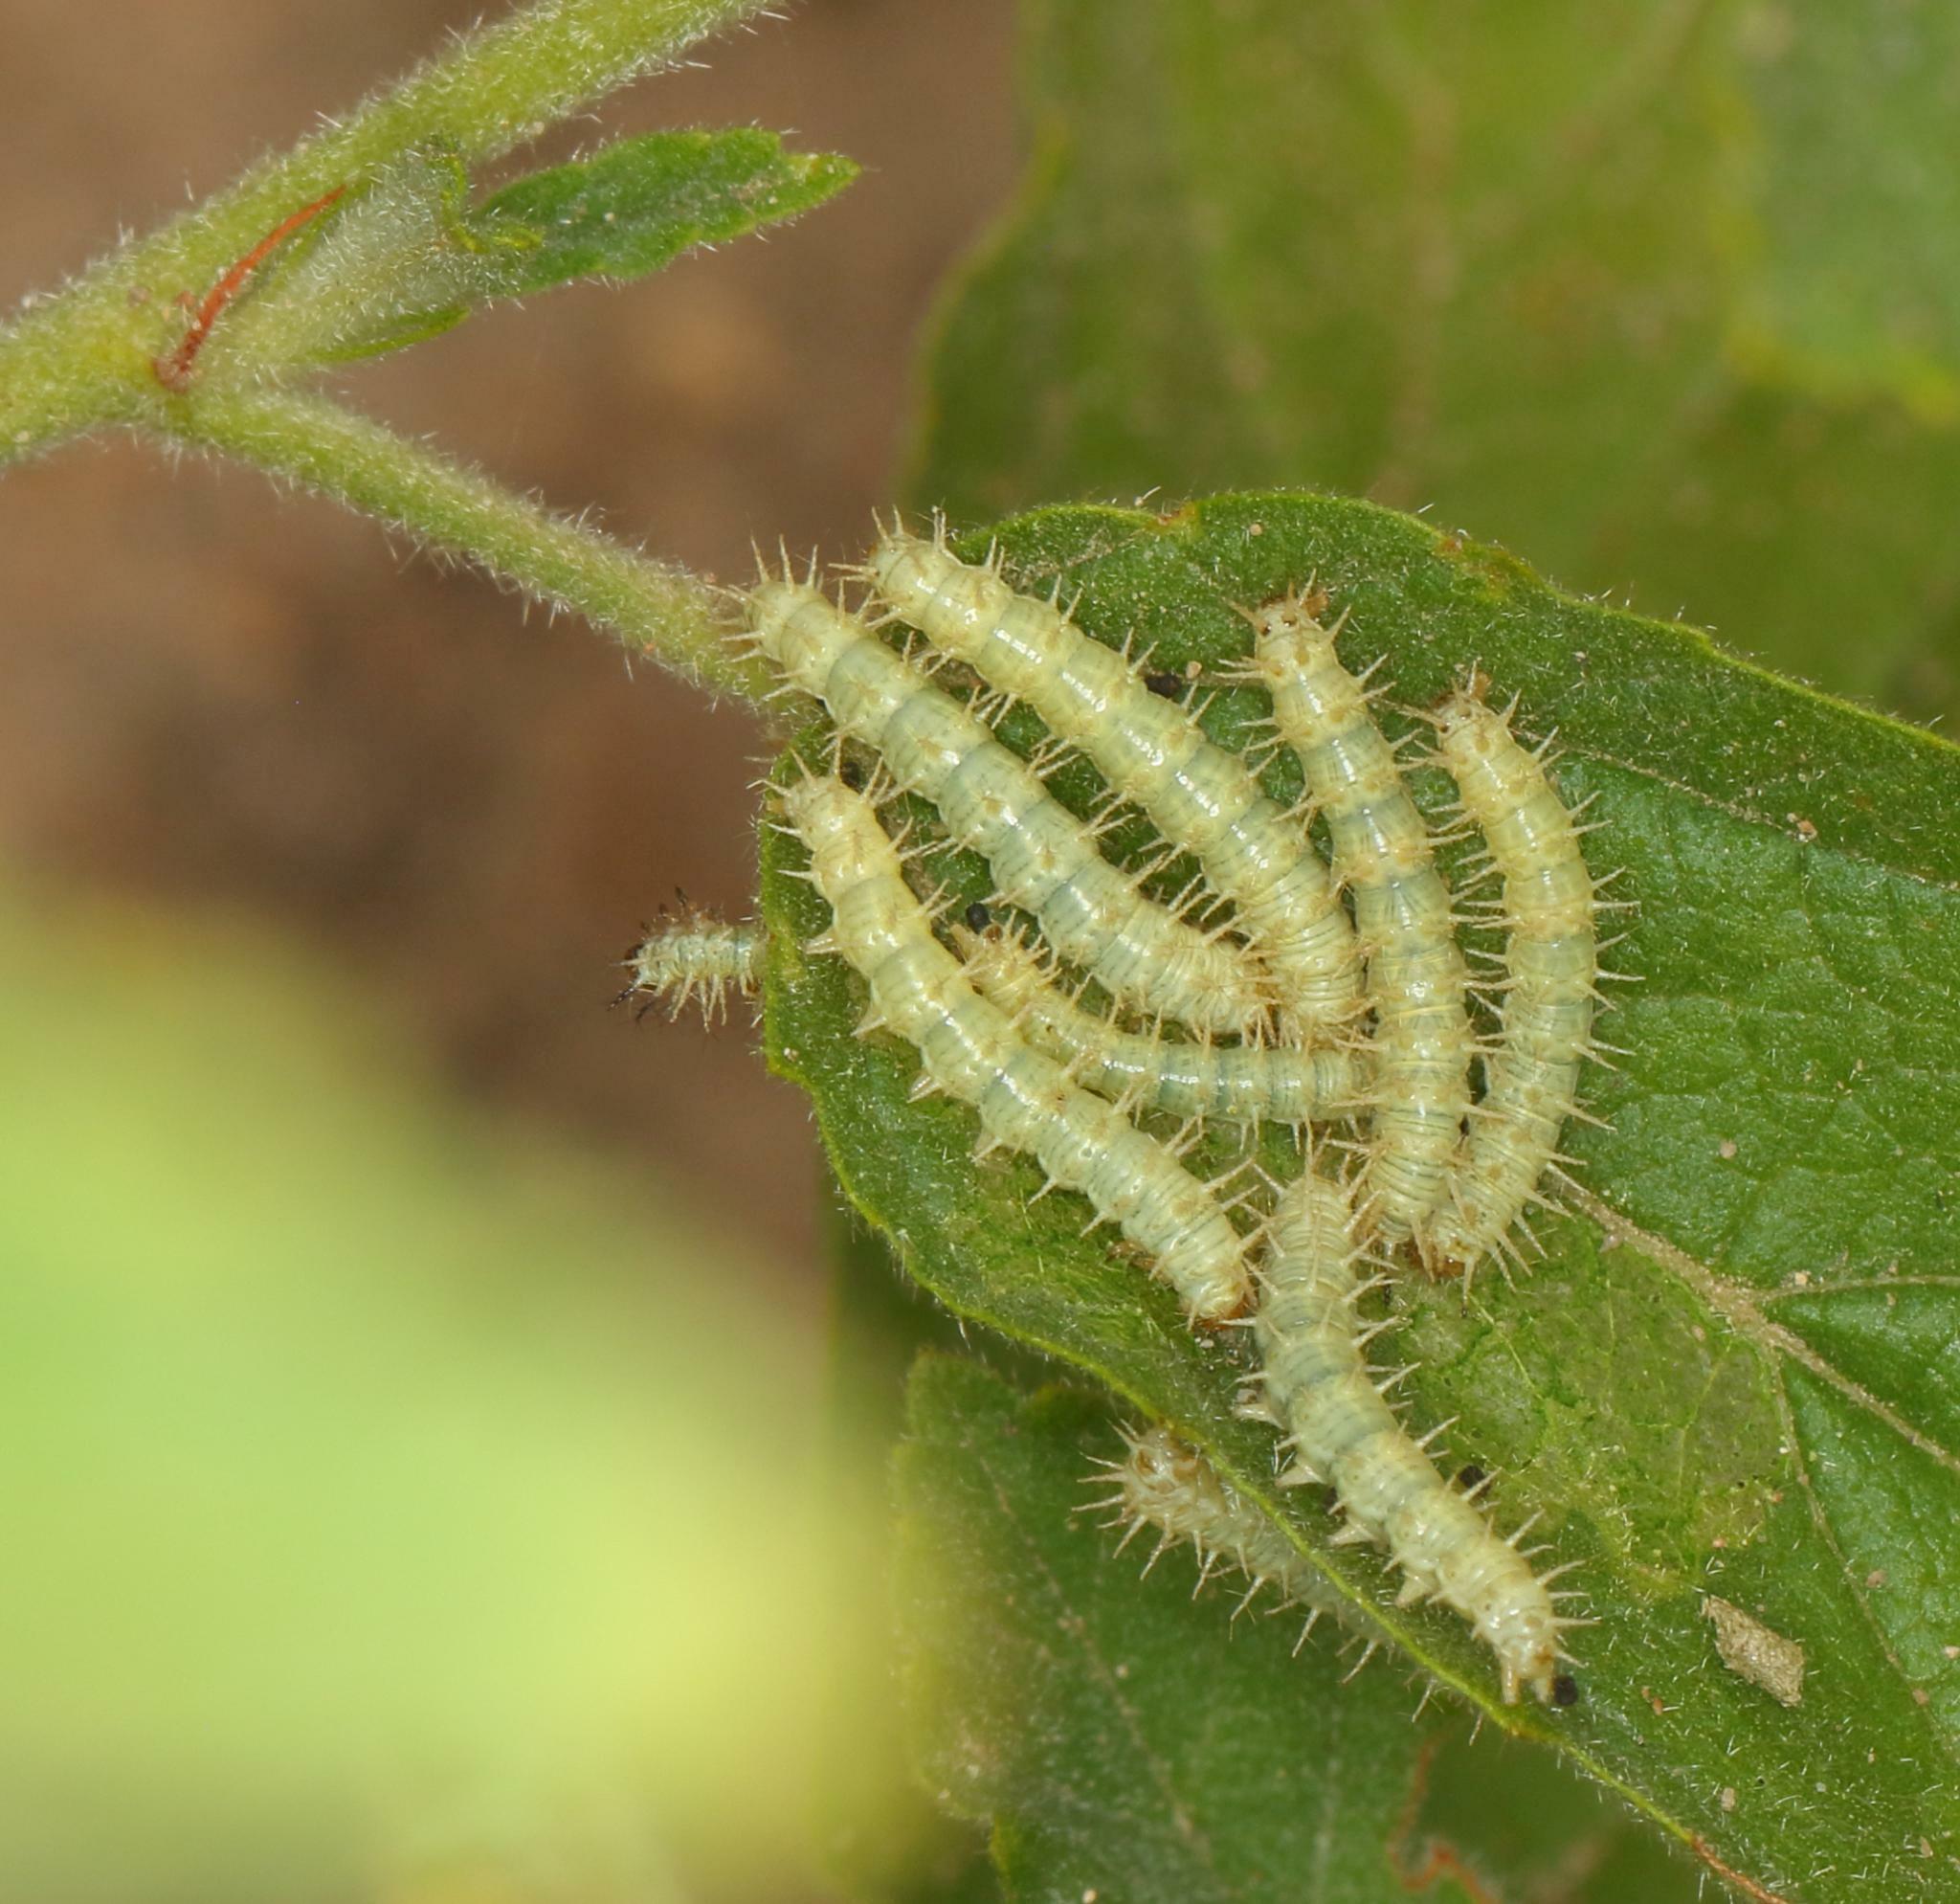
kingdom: Plantae
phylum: Tracheophyta
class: Magnoliopsida
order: Malvales
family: Malvaceae
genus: Waltheria
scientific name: Waltheria indica
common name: Leather-coat
